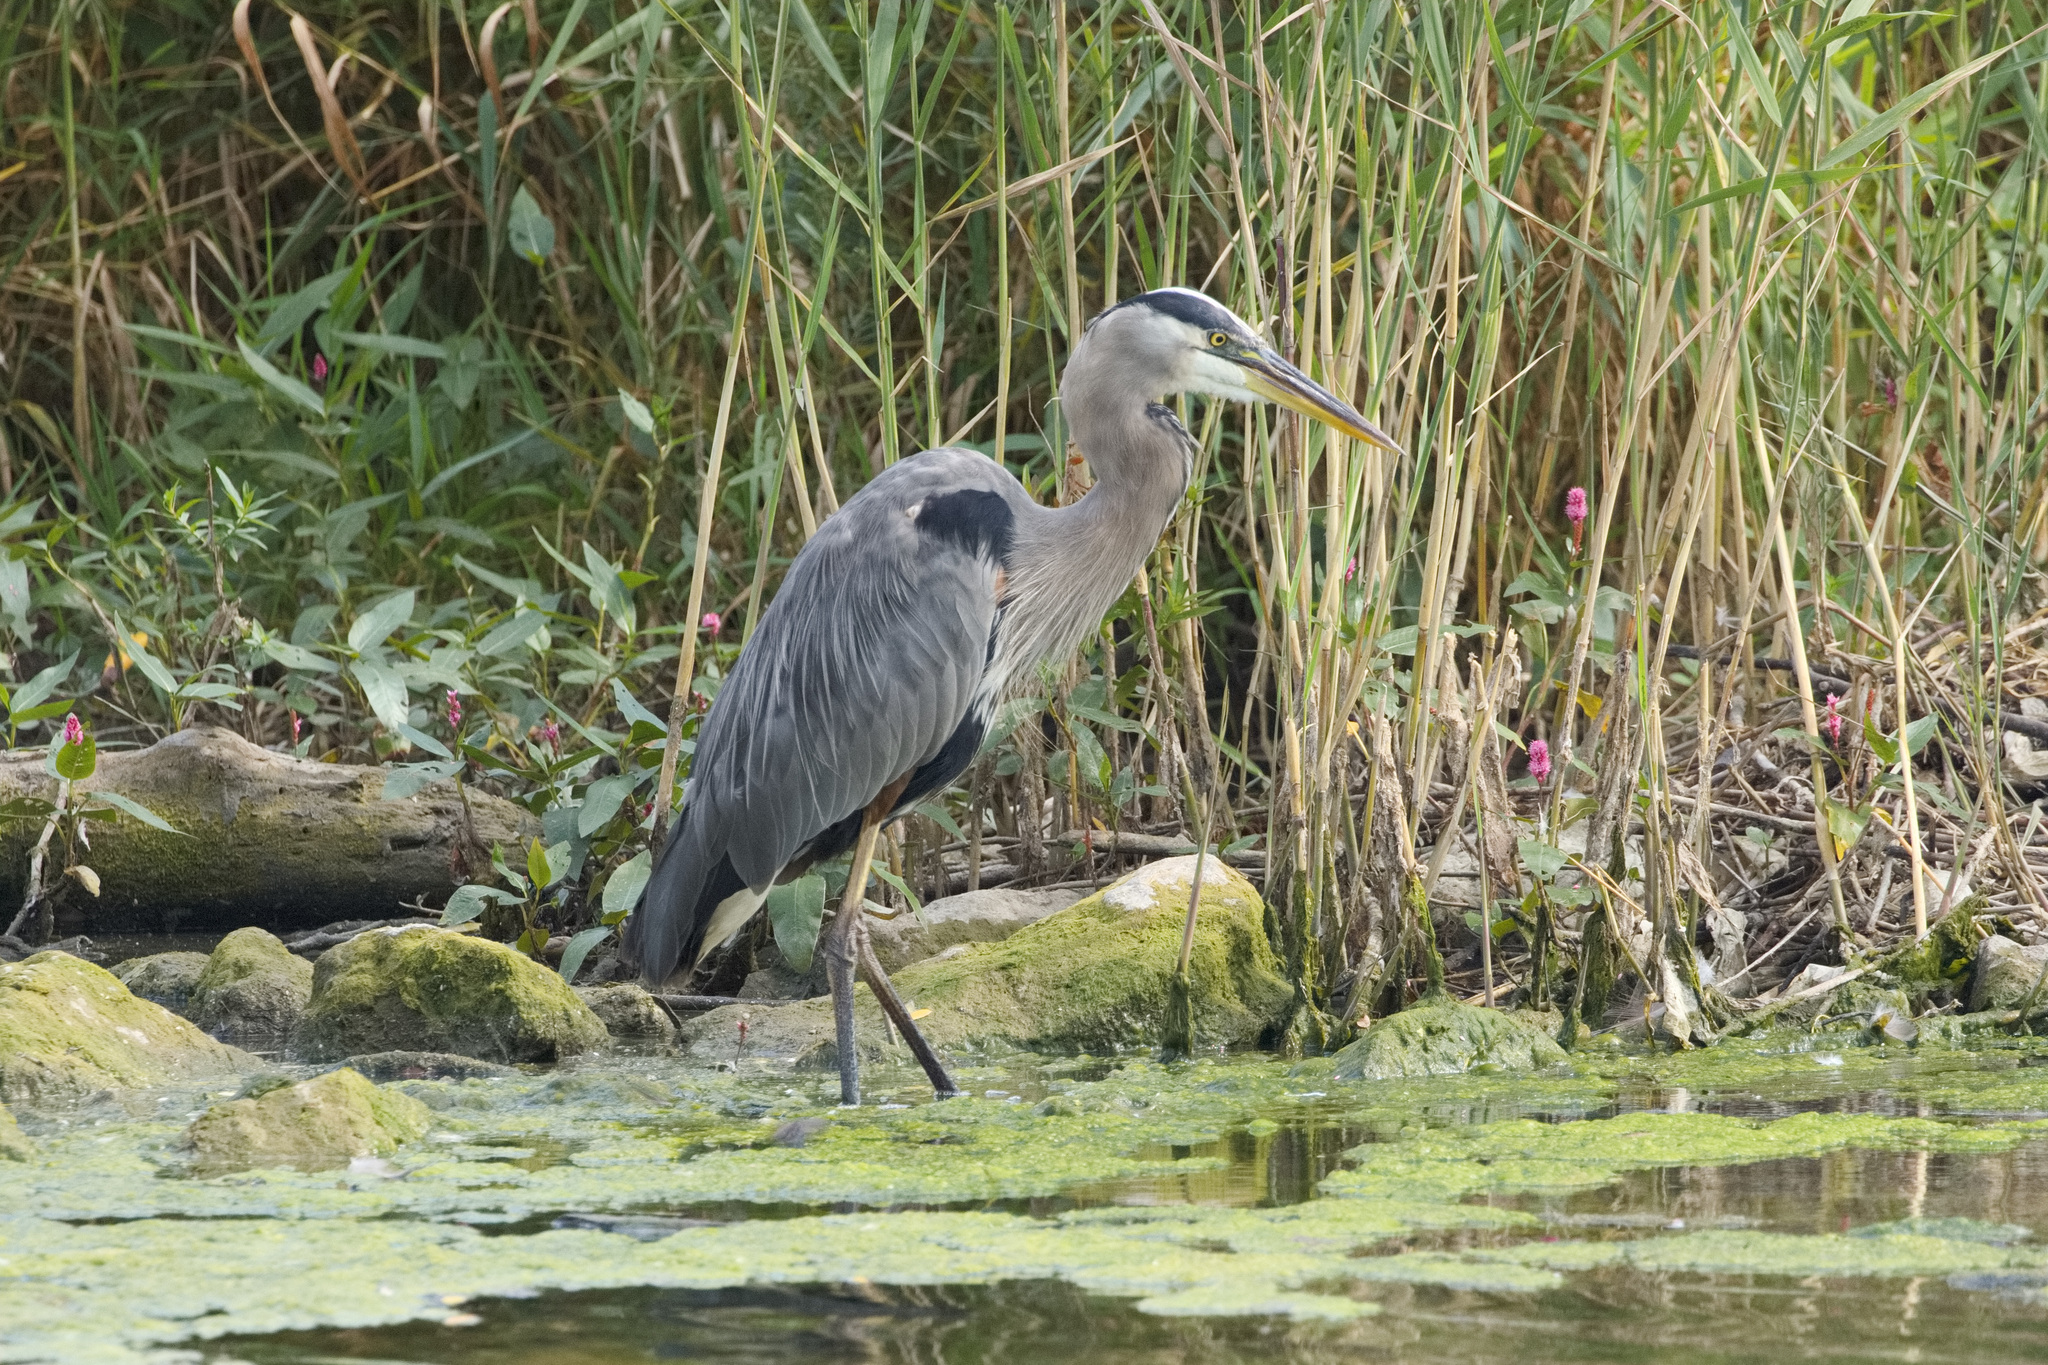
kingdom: Animalia
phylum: Chordata
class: Aves
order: Pelecaniformes
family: Ardeidae
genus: Ardea
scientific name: Ardea herodias
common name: Great blue heron
